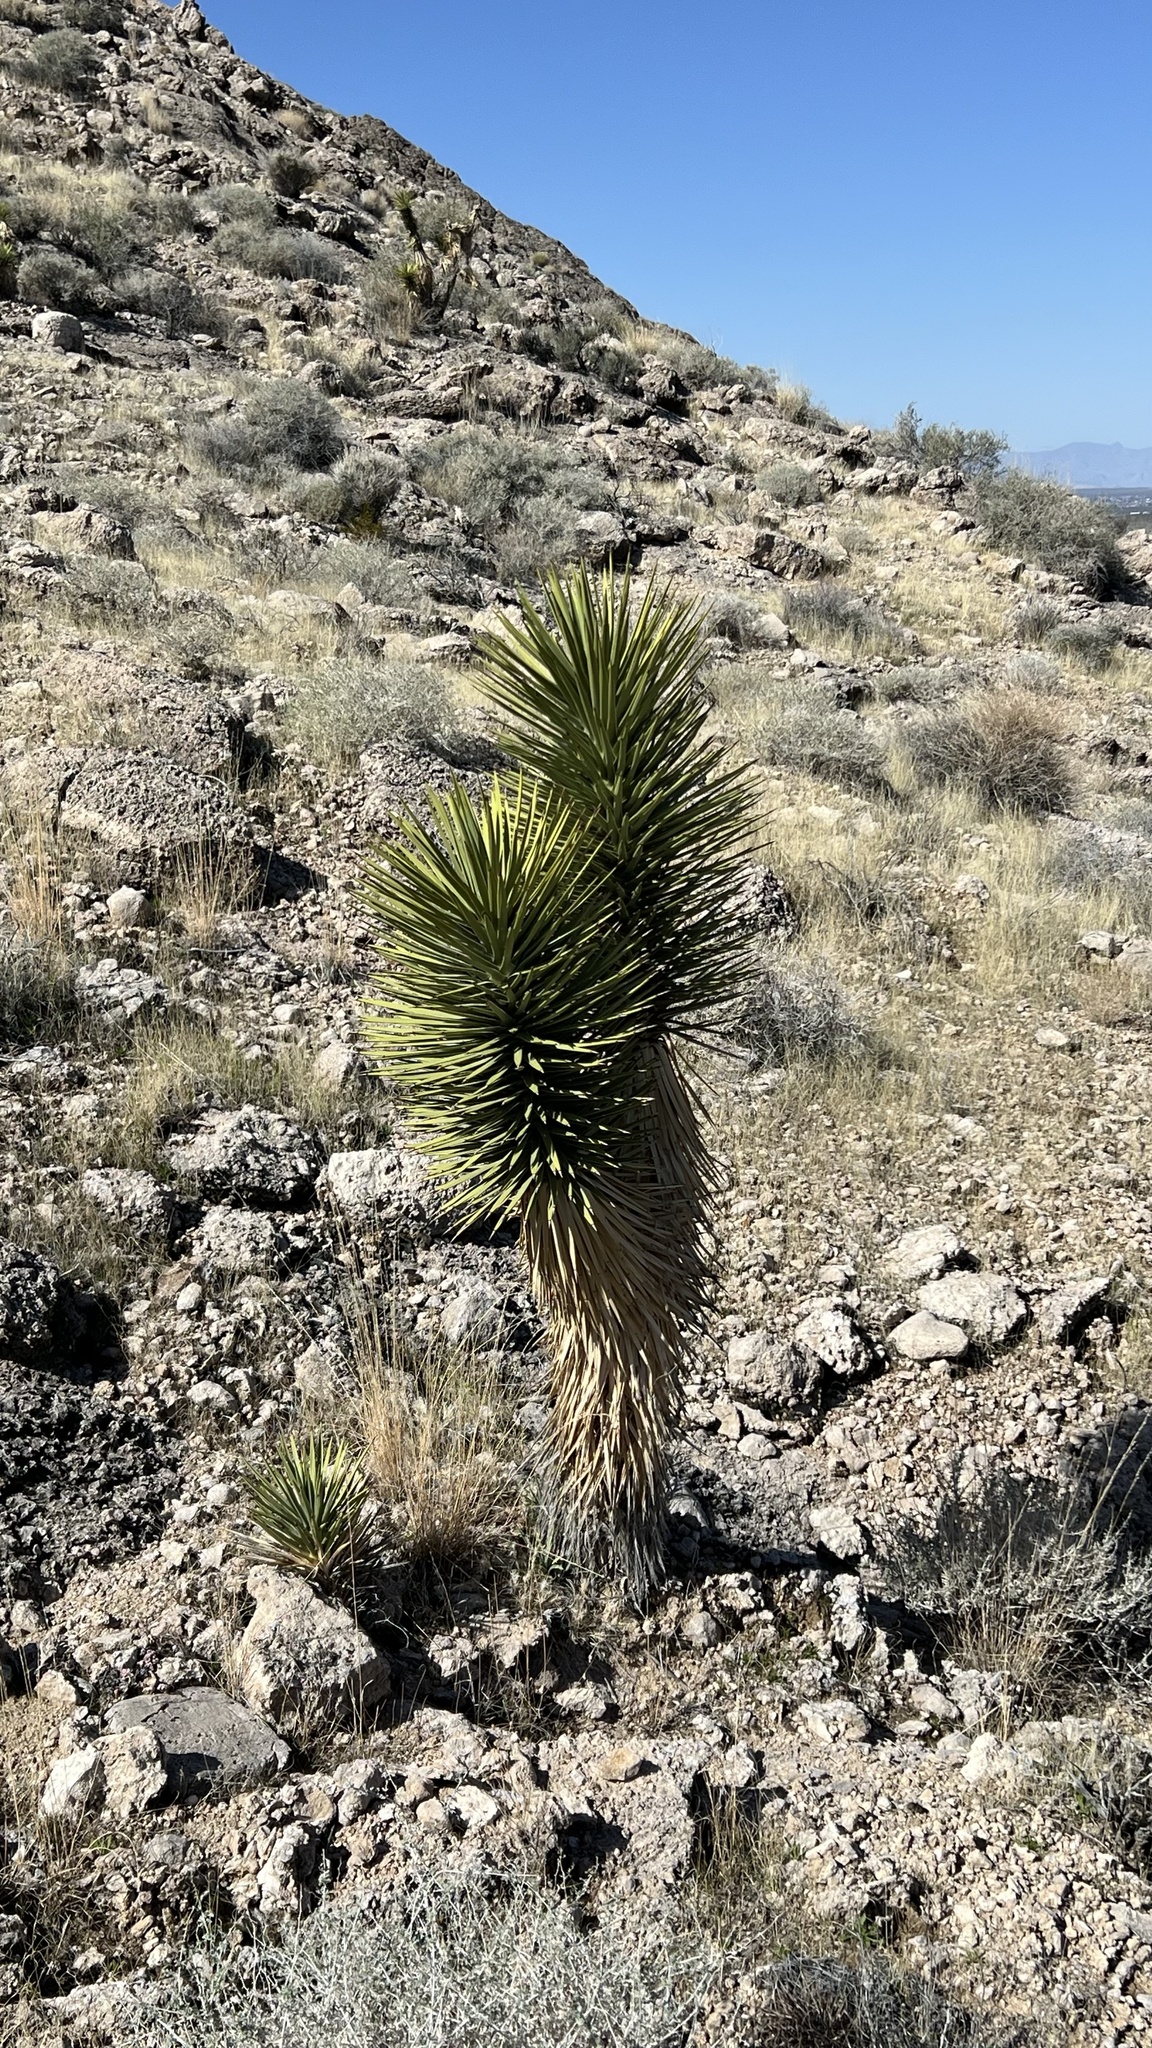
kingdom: Plantae
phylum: Tracheophyta
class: Liliopsida
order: Asparagales
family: Asparagaceae
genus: Yucca
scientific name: Yucca brevifolia
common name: Joshua tree
